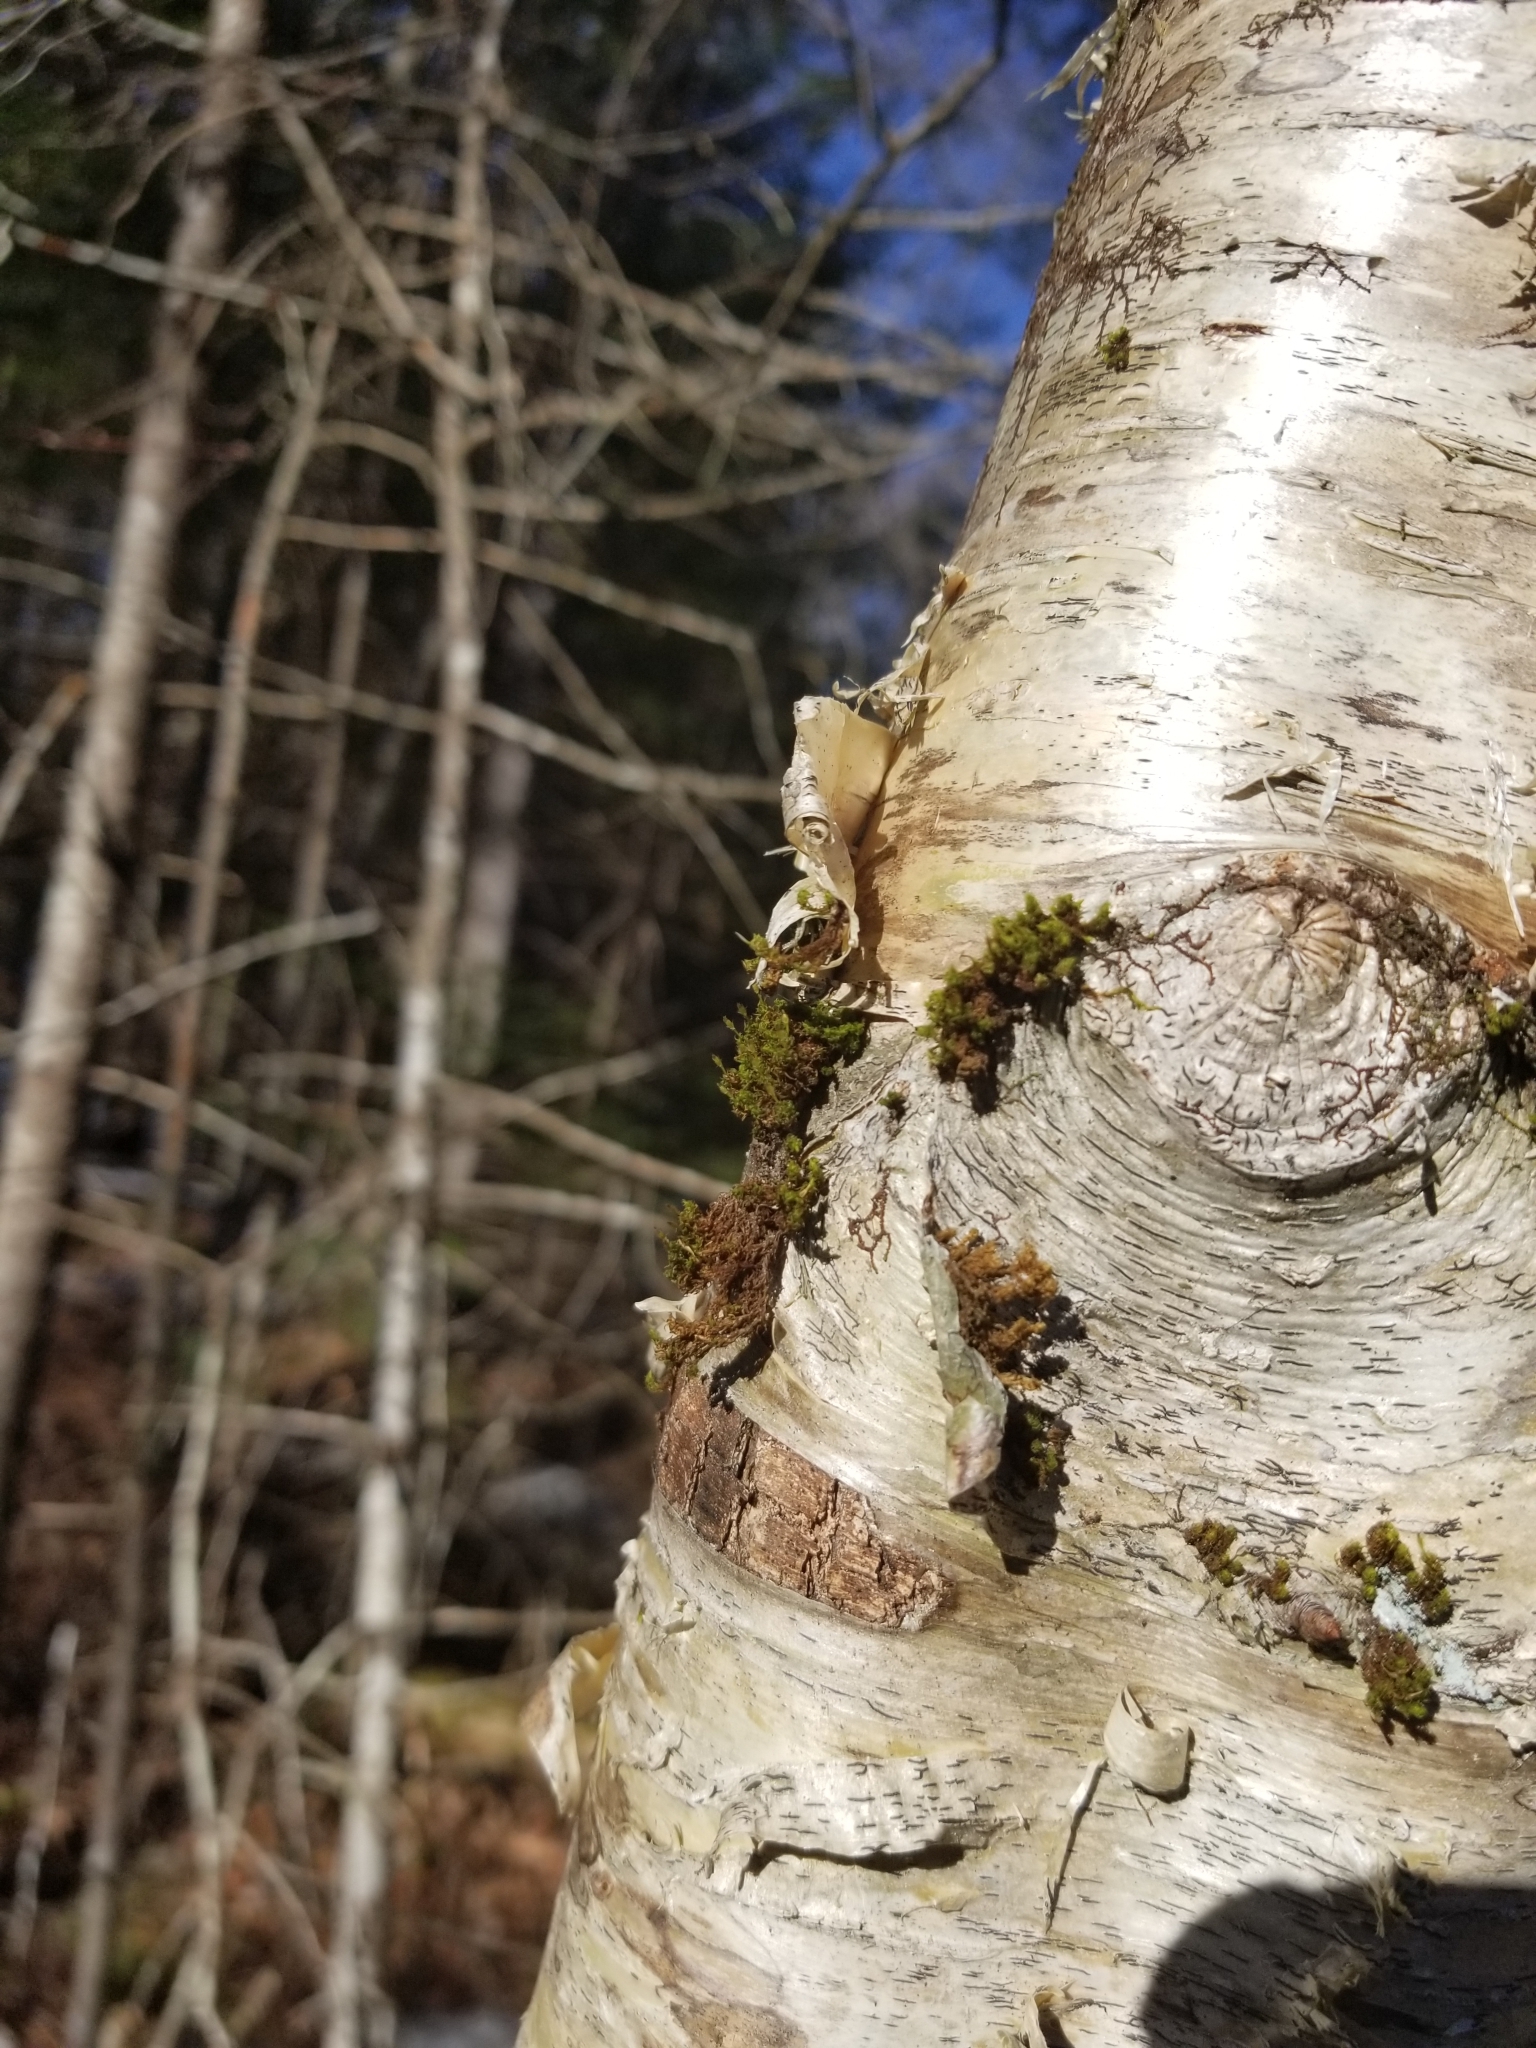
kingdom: Plantae
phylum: Bryophyta
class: Bryopsida
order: Orthotrichales
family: Orthotrichaceae
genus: Ulota
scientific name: Ulota crispa
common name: Crisped pincushion moss
